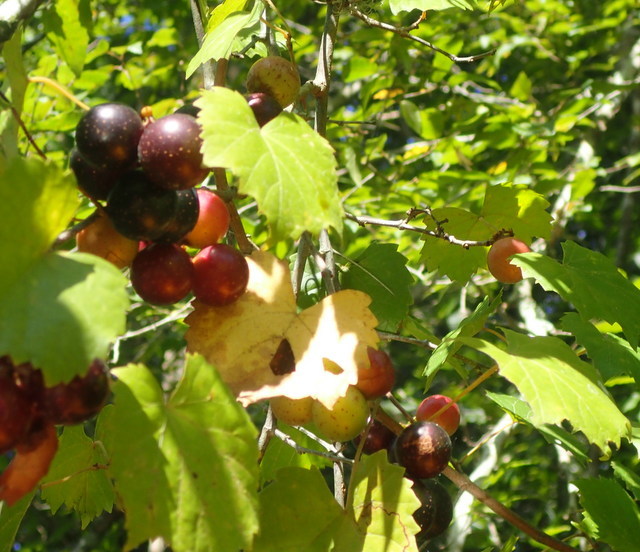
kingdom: Plantae
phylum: Tracheophyta
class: Magnoliopsida
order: Vitales
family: Vitaceae
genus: Vitis
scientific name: Vitis rotundifolia
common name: Muscadine grape
